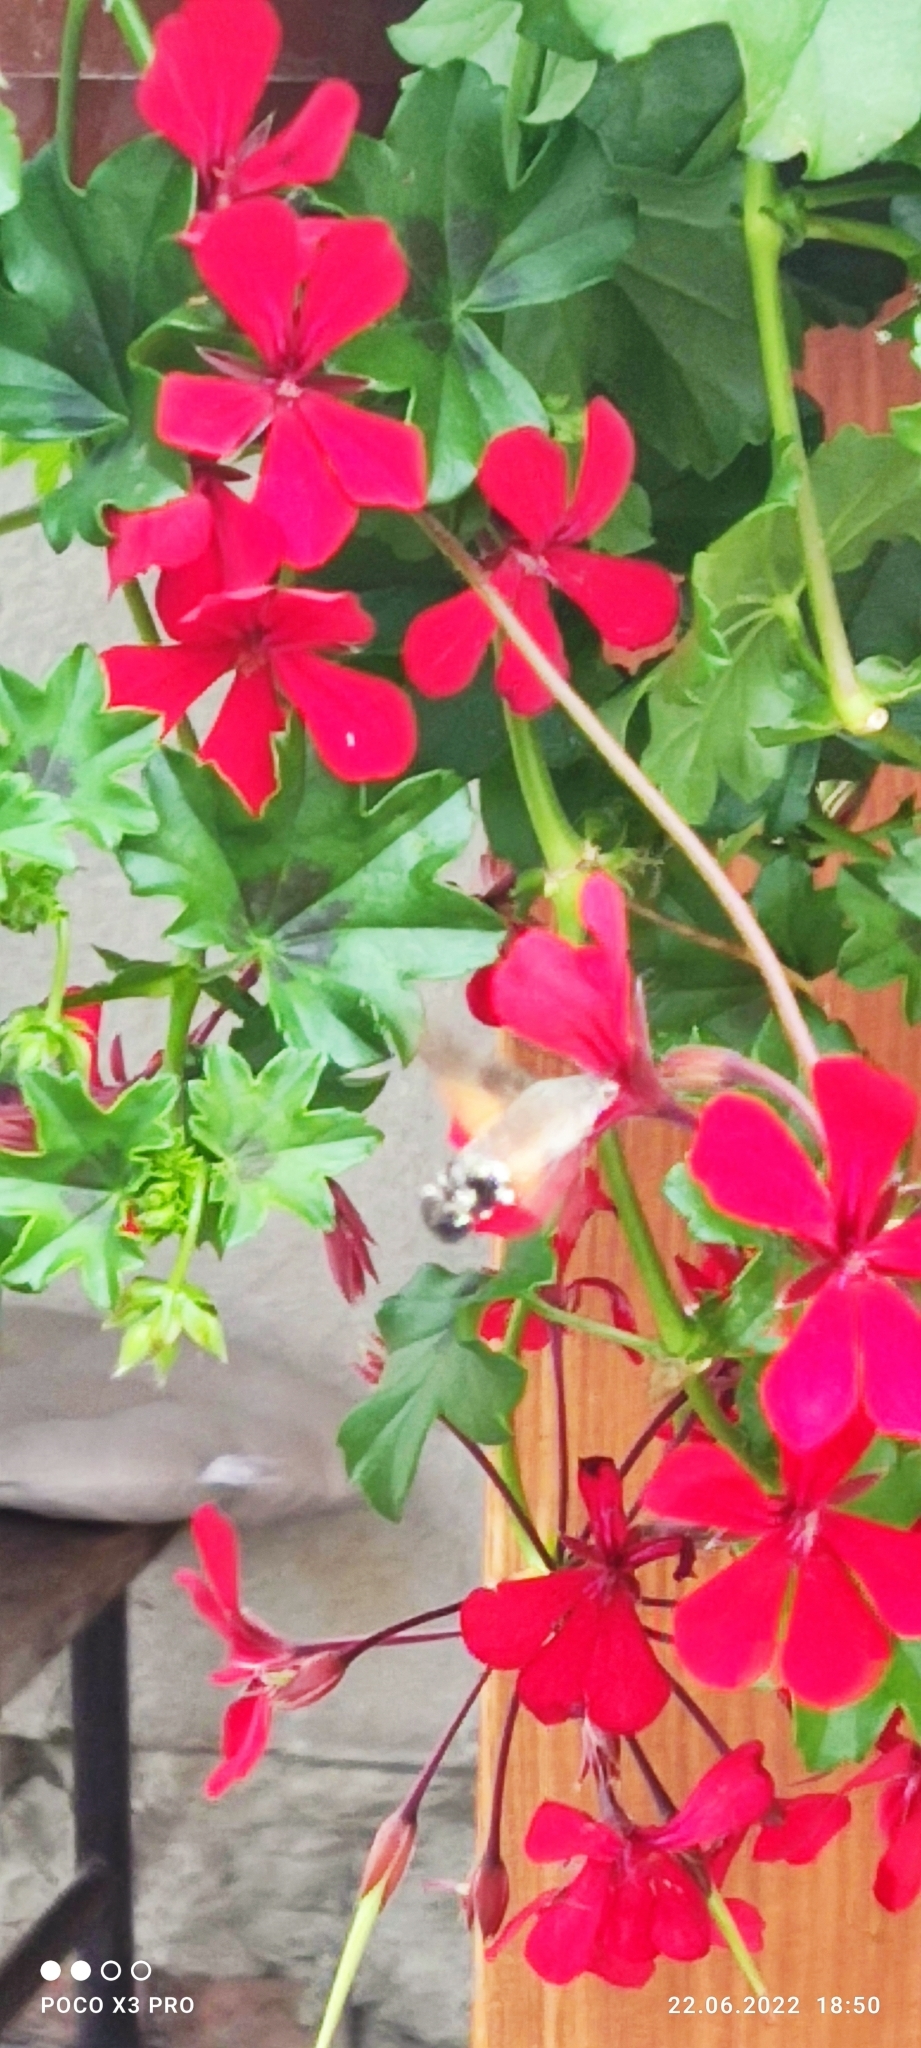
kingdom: Animalia
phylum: Arthropoda
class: Insecta
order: Lepidoptera
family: Sphingidae
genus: Macroglossum
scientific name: Macroglossum stellatarum
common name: Humming-bird hawk-moth
